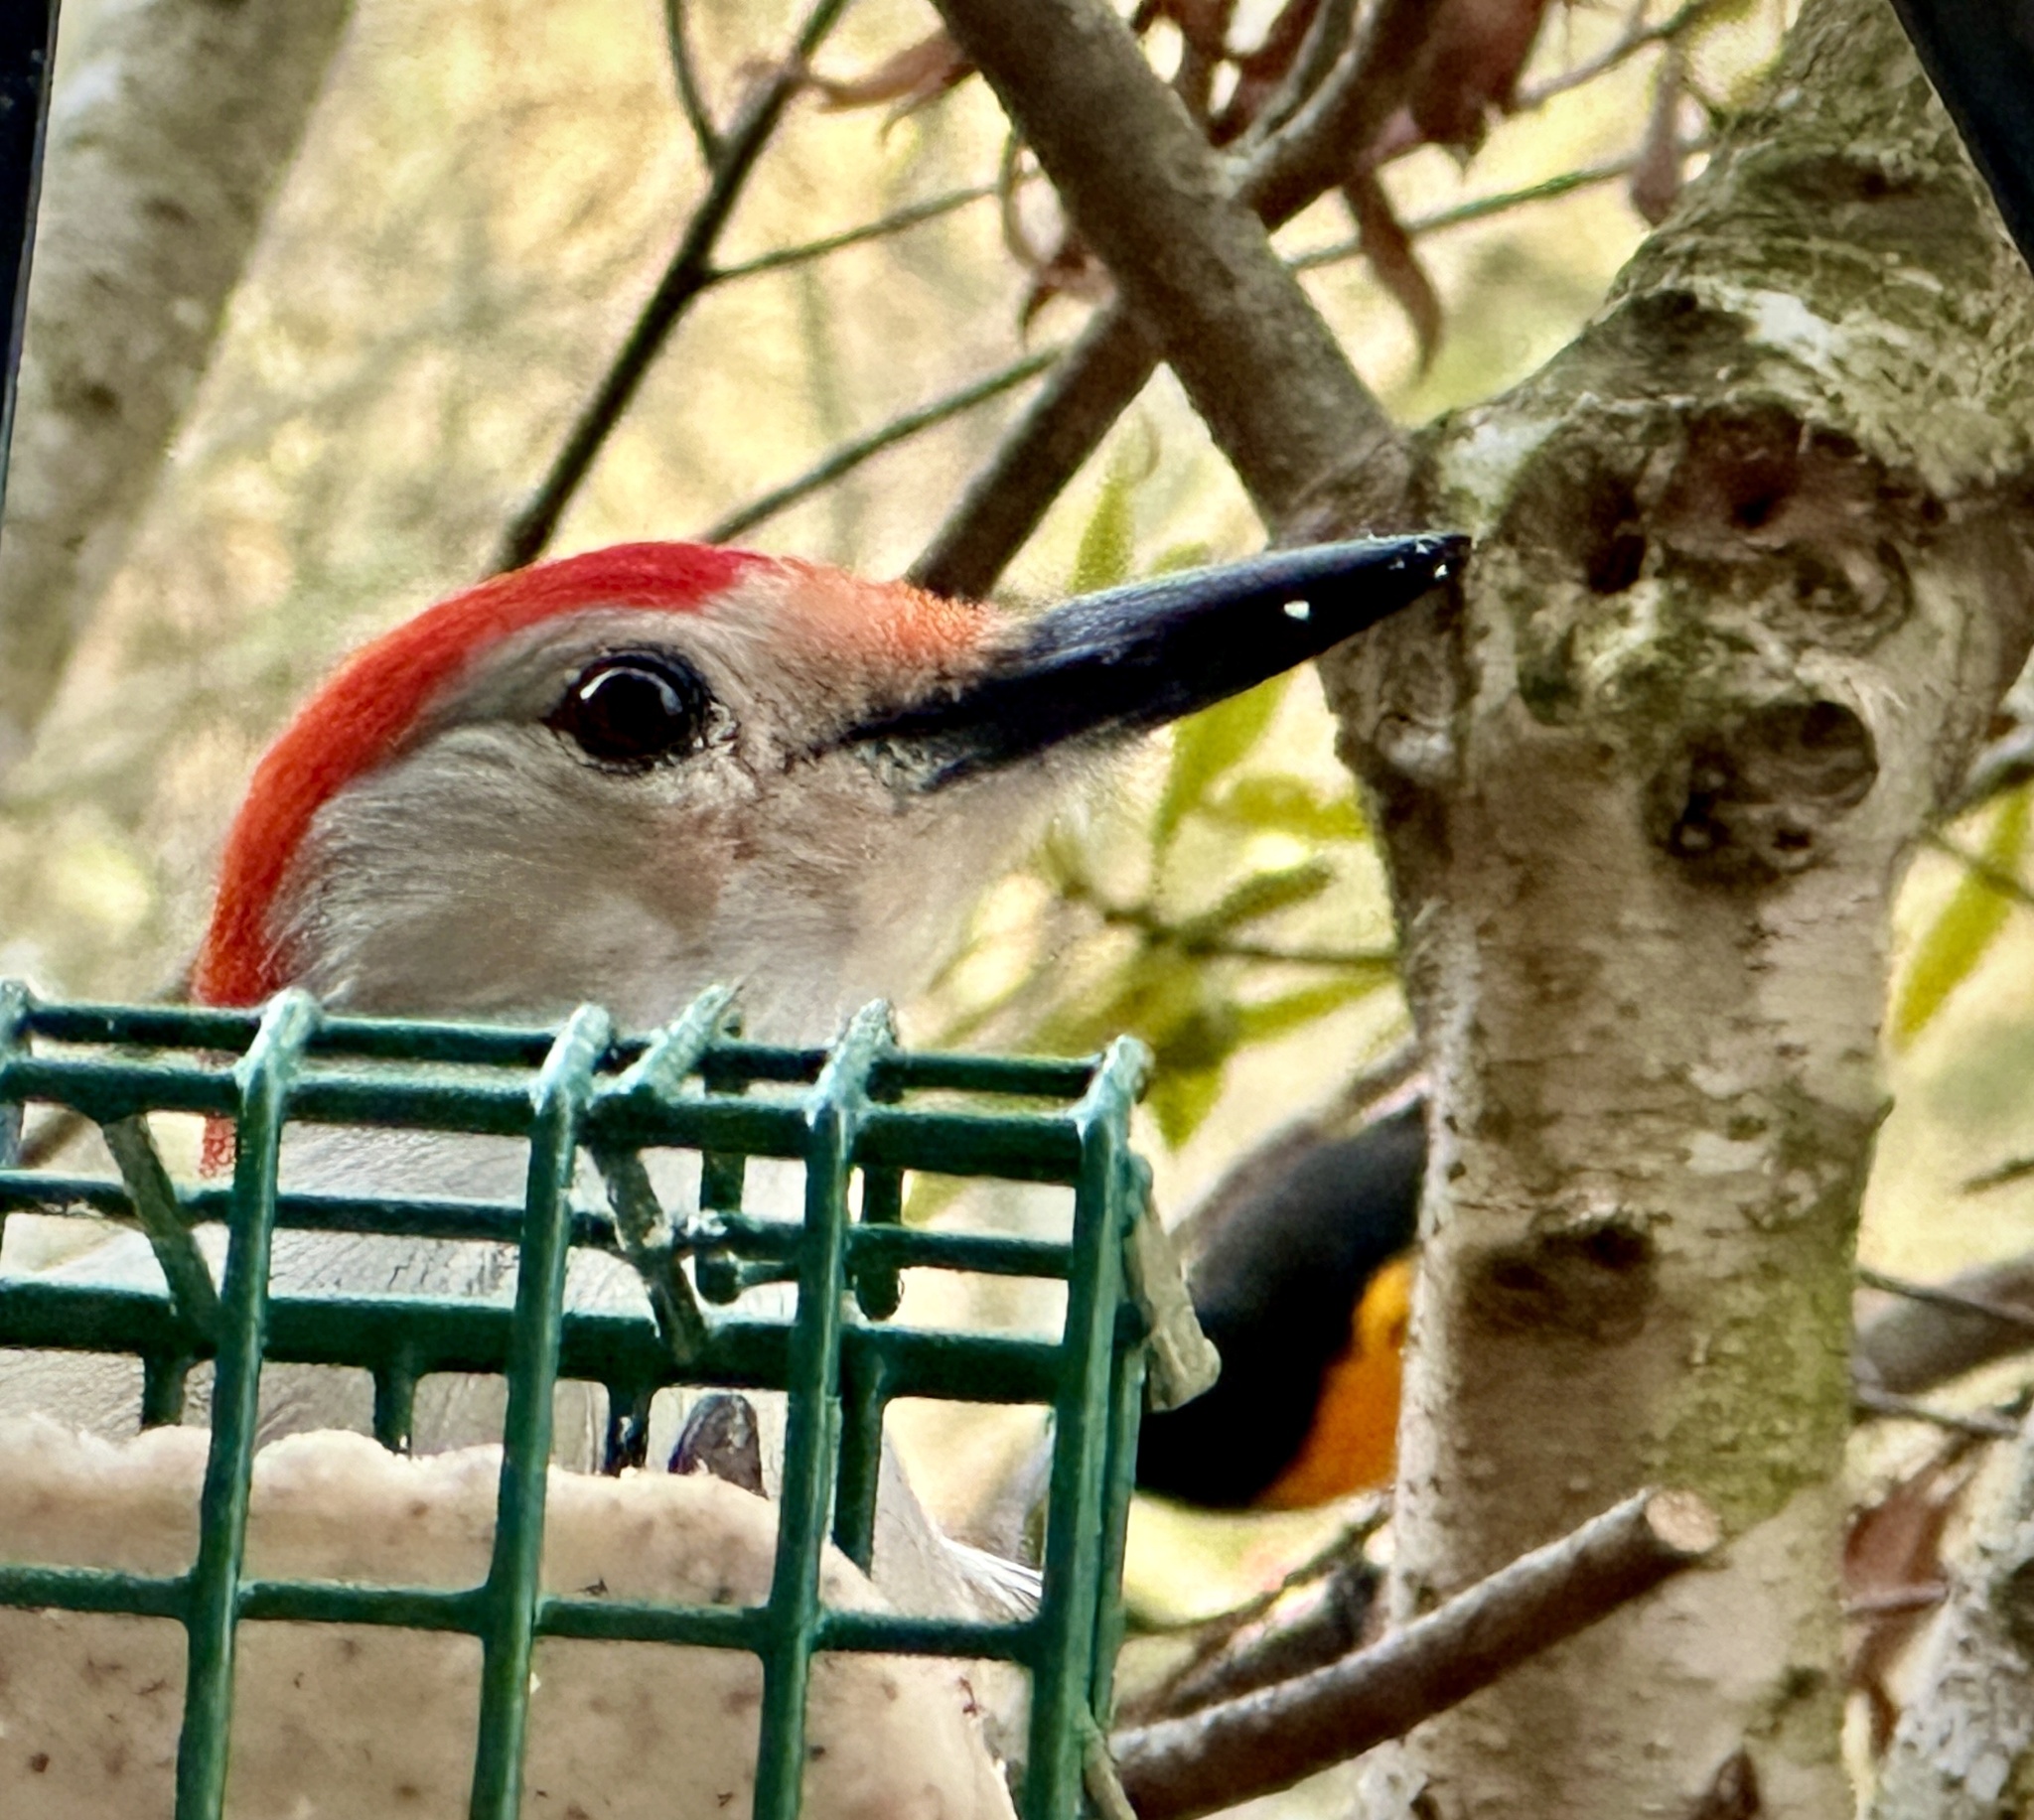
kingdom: Animalia
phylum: Chordata
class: Aves
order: Piciformes
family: Picidae
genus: Melanerpes
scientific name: Melanerpes carolinus
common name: Red-bellied woodpecker
